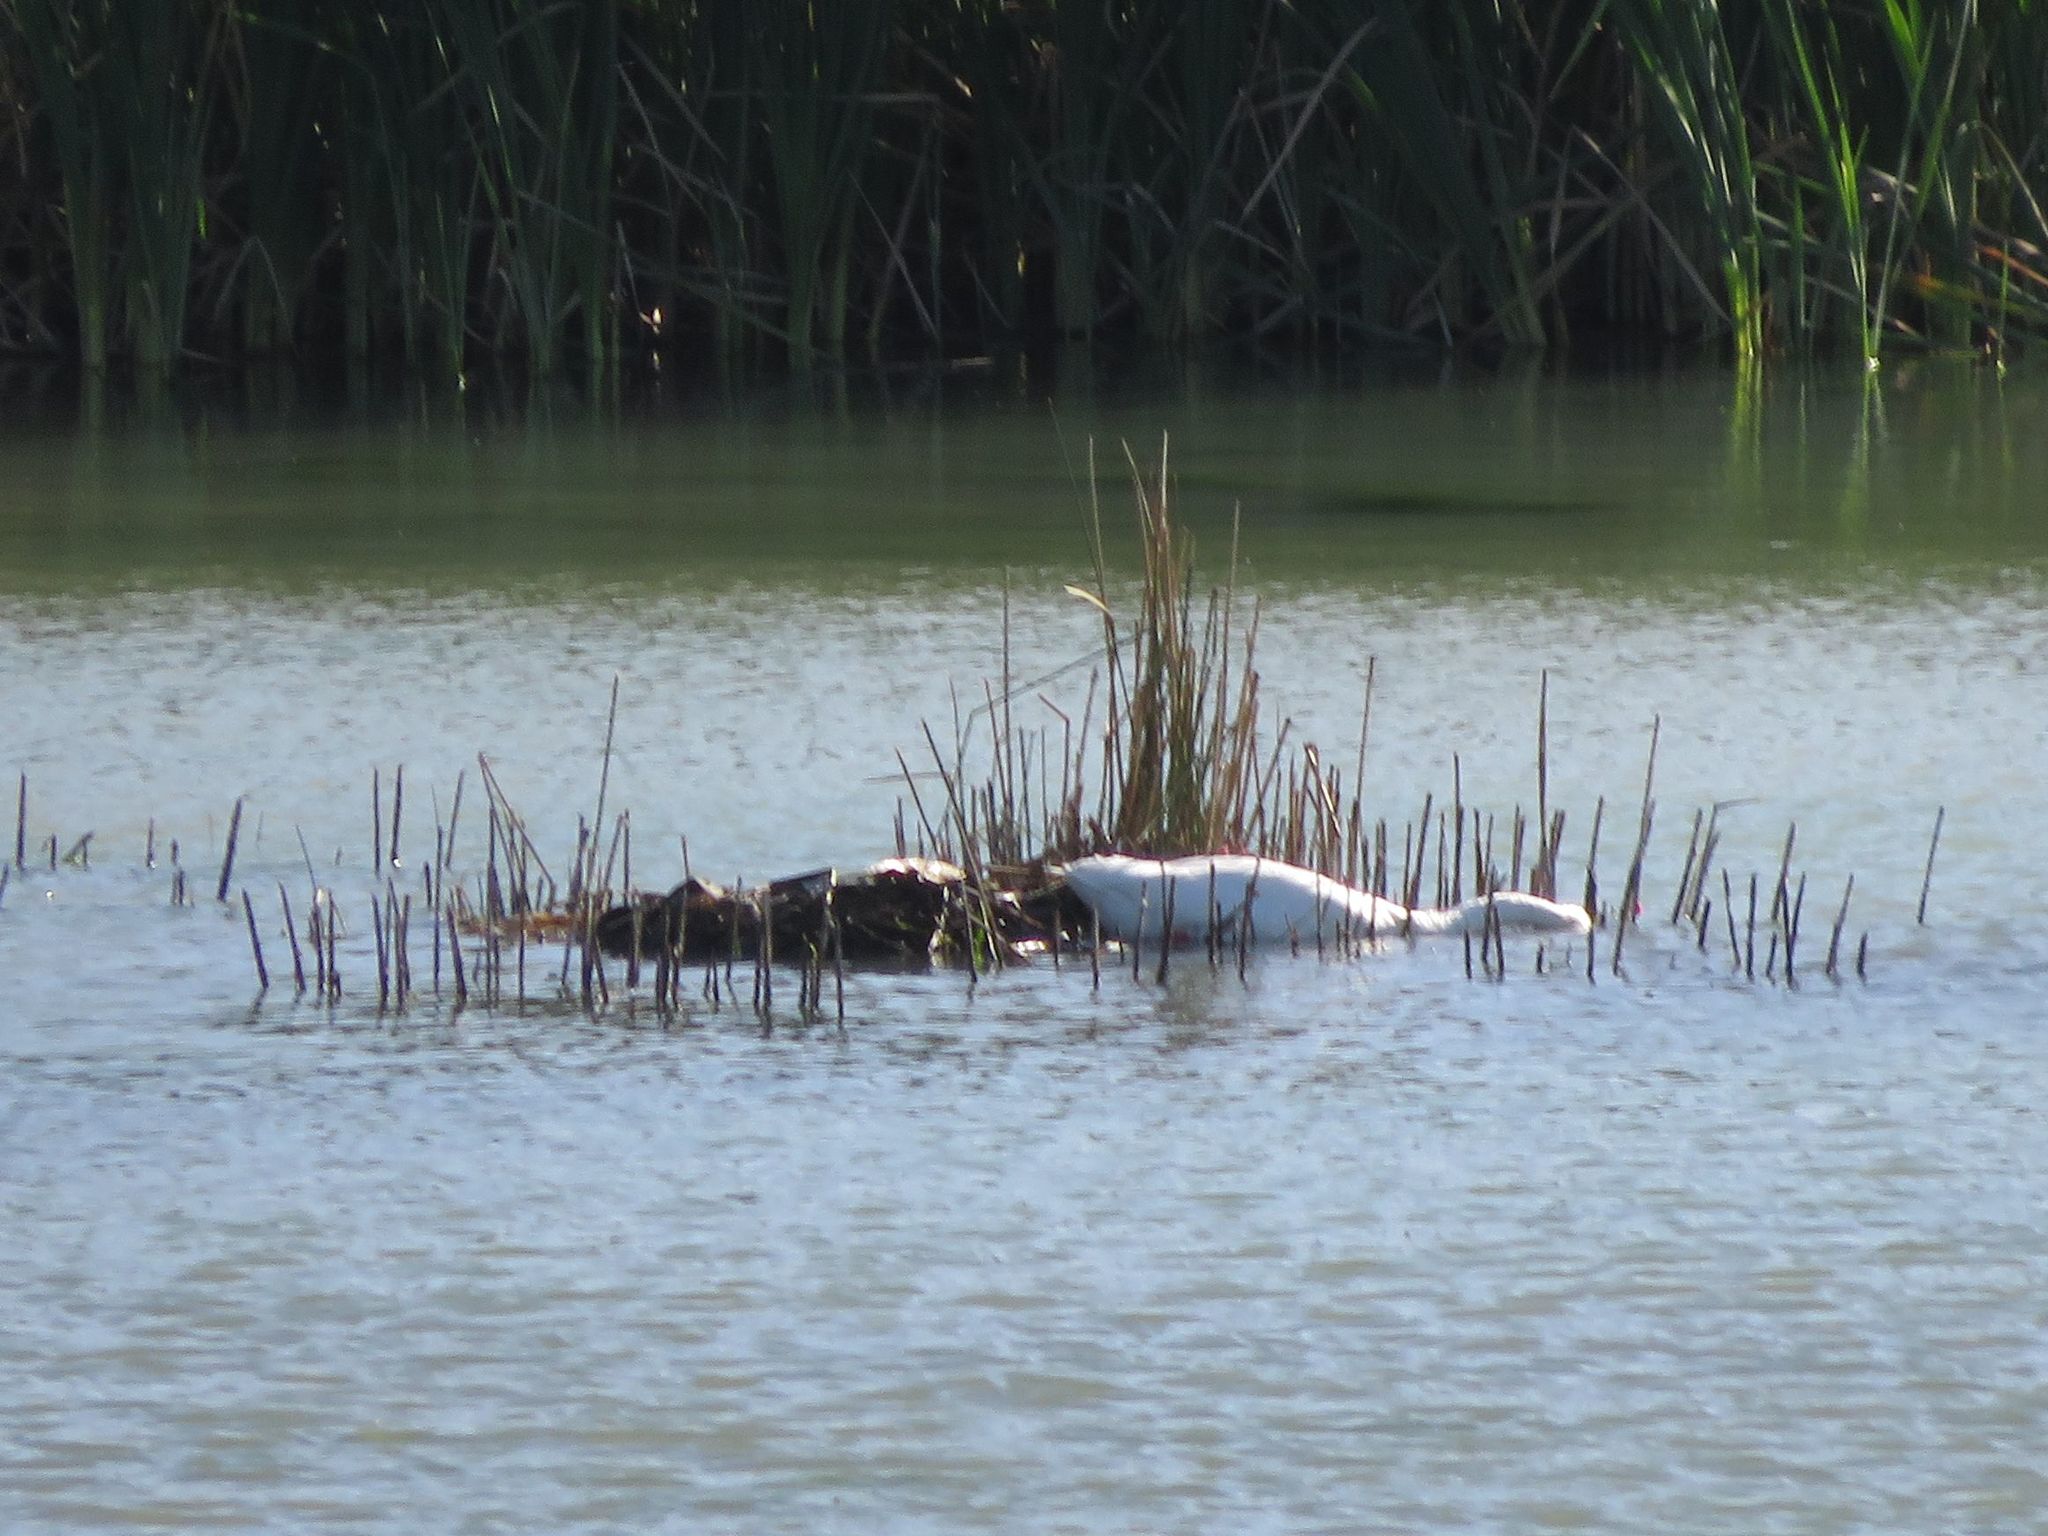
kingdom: Animalia
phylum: Chordata
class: Aves
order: Anseriformes
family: Anatidae
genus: Coscoroba
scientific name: Coscoroba coscoroba
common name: Coscoroba swan
